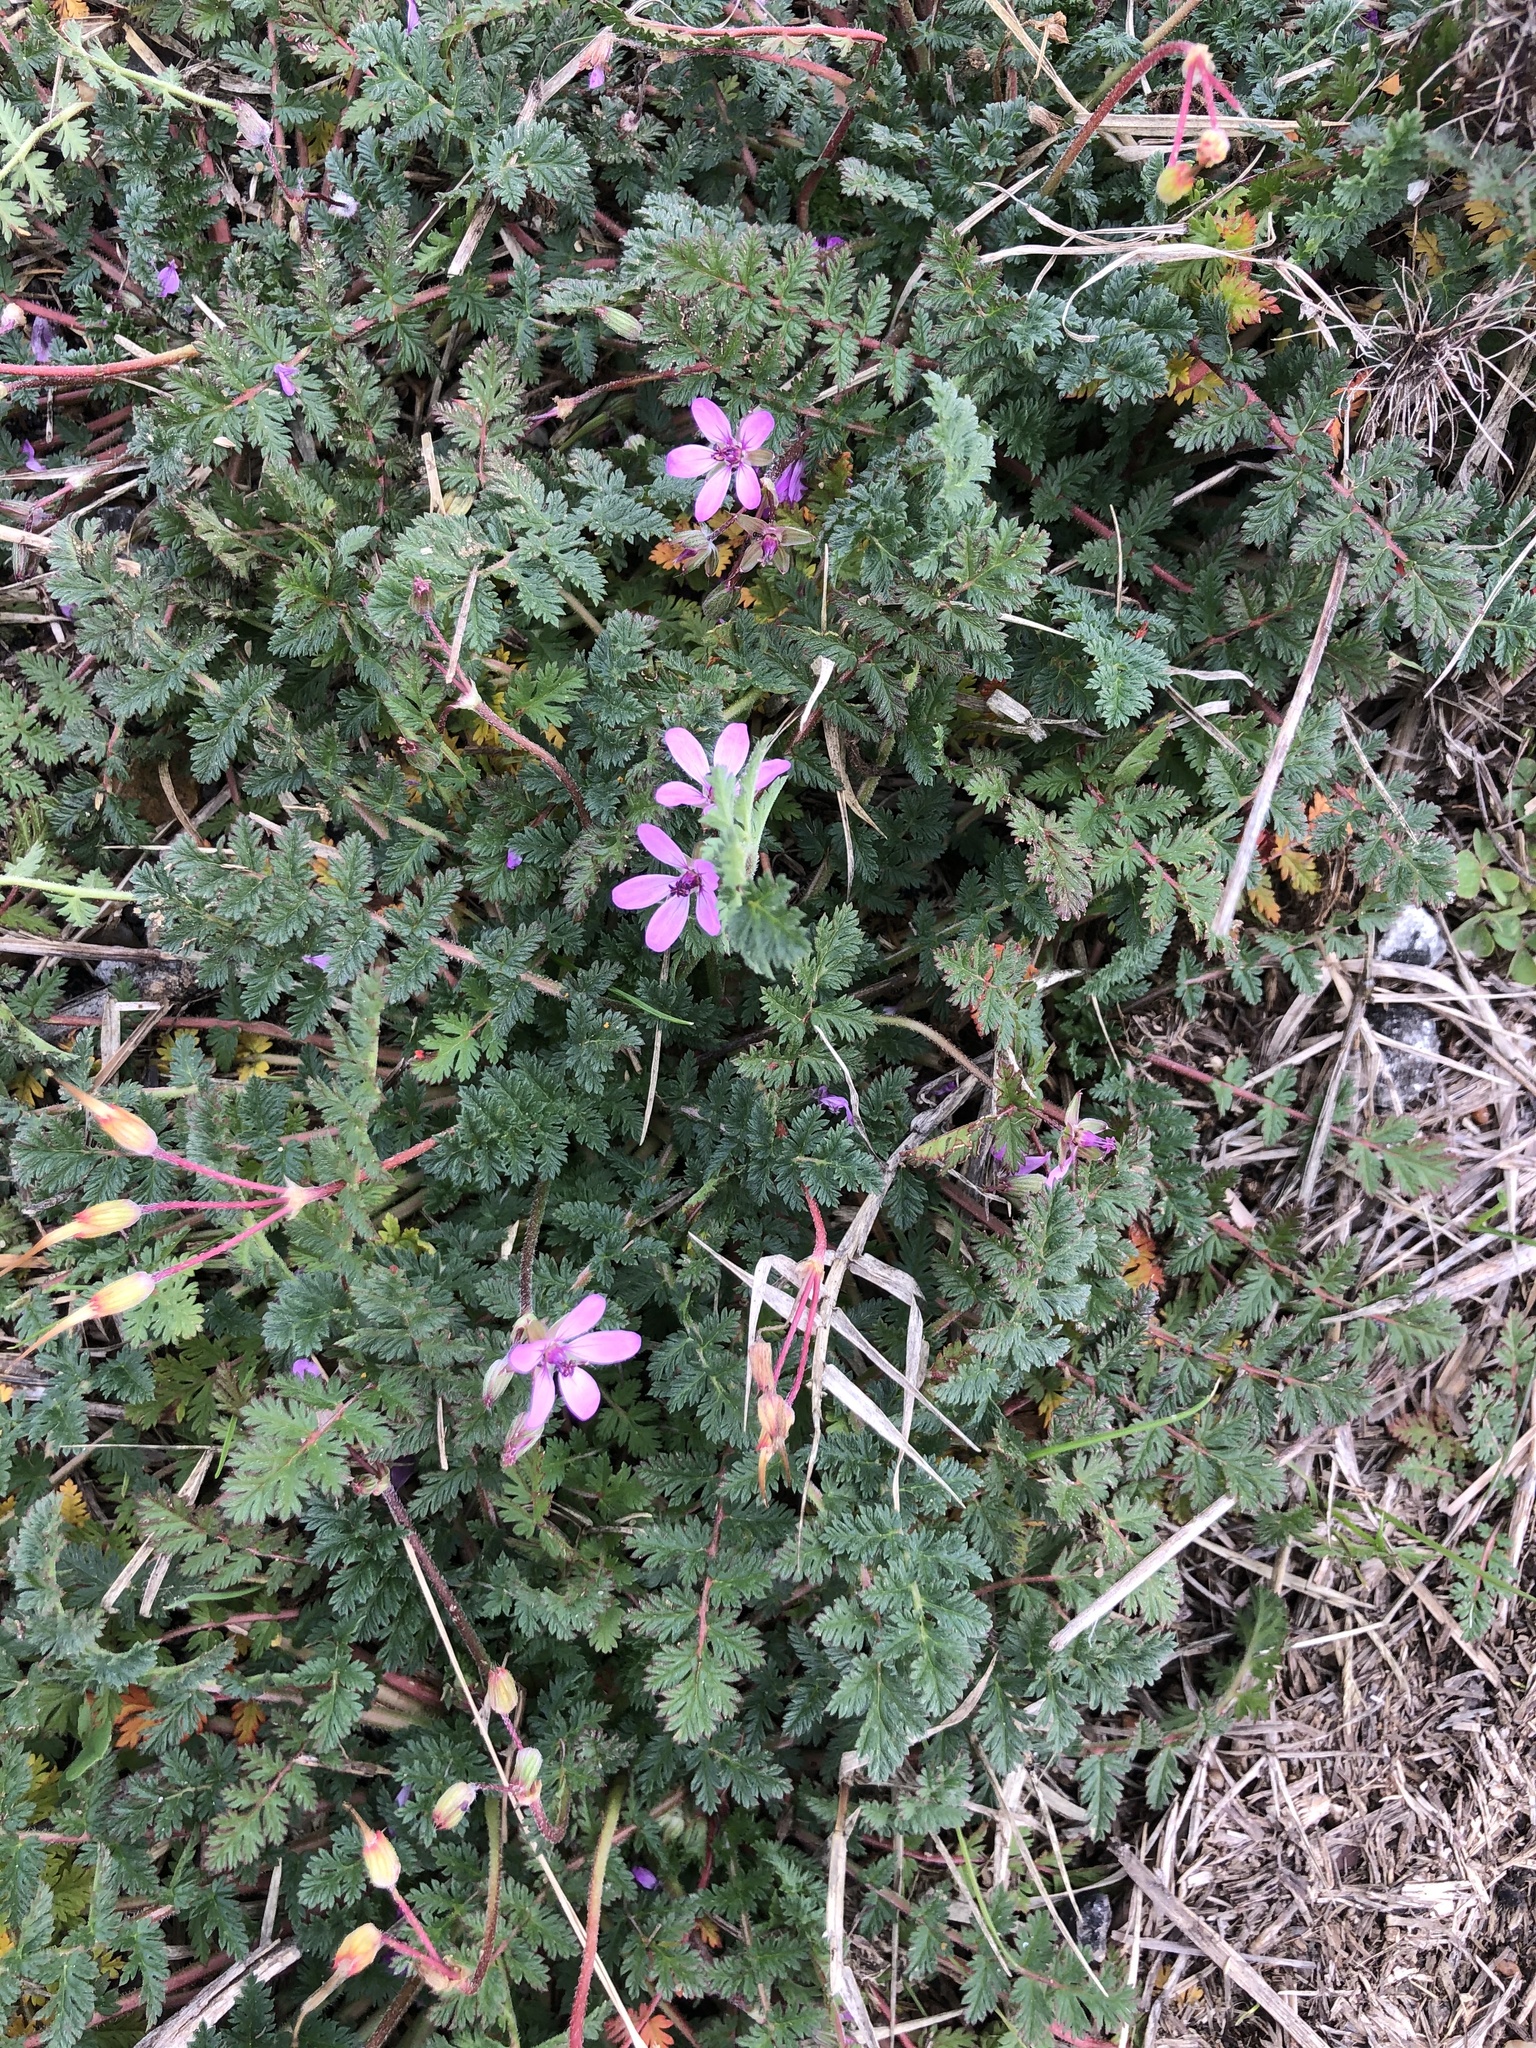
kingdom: Plantae
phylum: Tracheophyta
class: Magnoliopsida
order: Geraniales
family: Geraniaceae
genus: Erodium
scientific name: Erodium cicutarium
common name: Common stork's-bill
